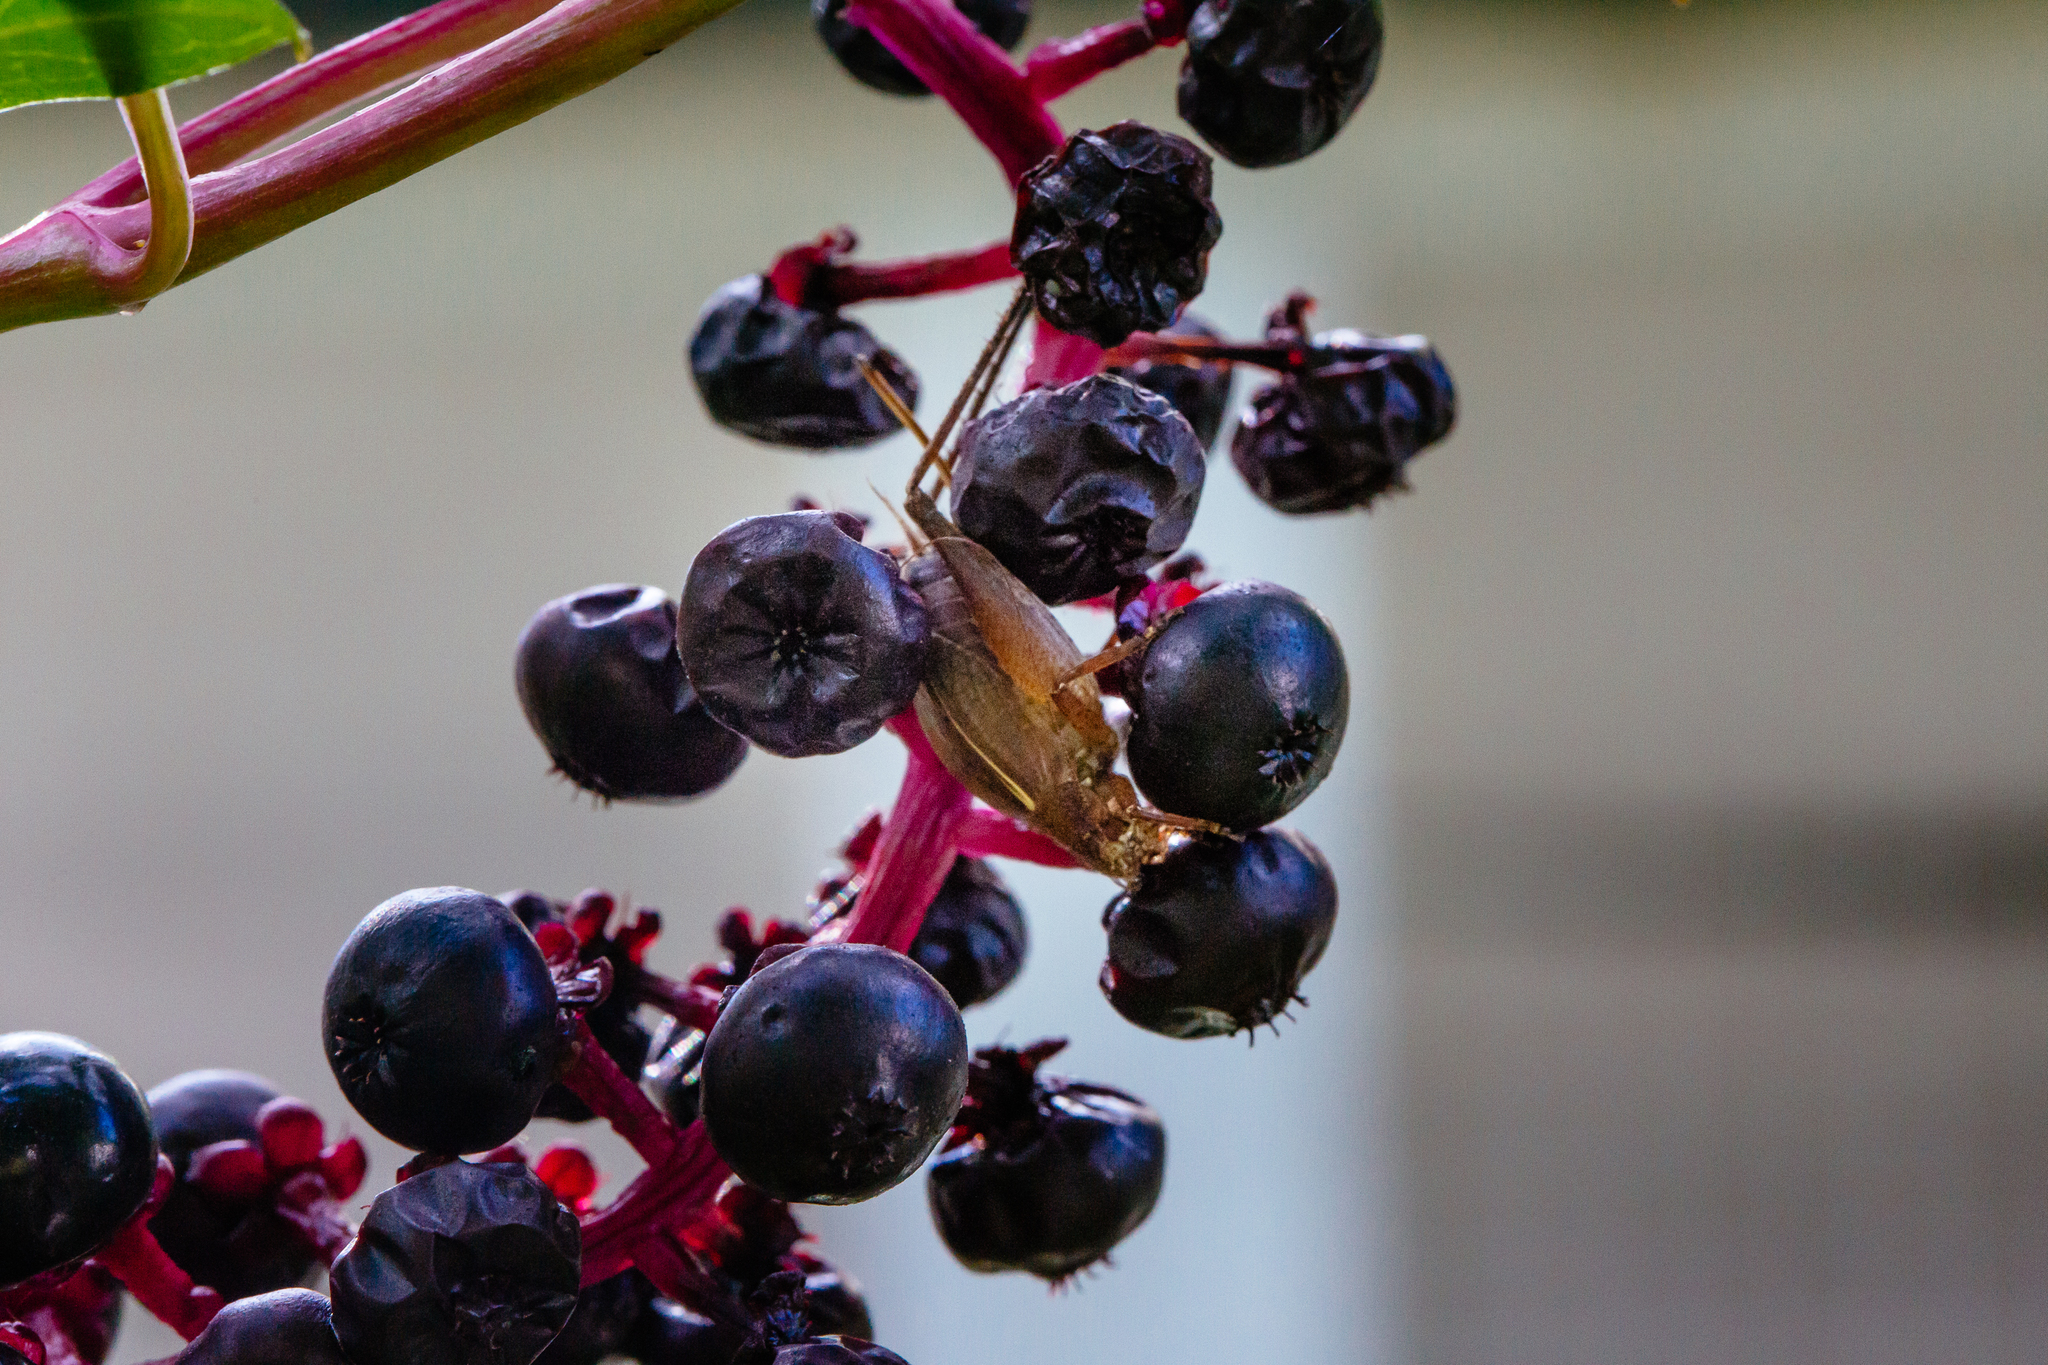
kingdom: Animalia
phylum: Arthropoda
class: Insecta
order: Orthoptera
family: Gryllidae
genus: Hapithus
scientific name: Hapithus agitator
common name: Restless bush cricket
